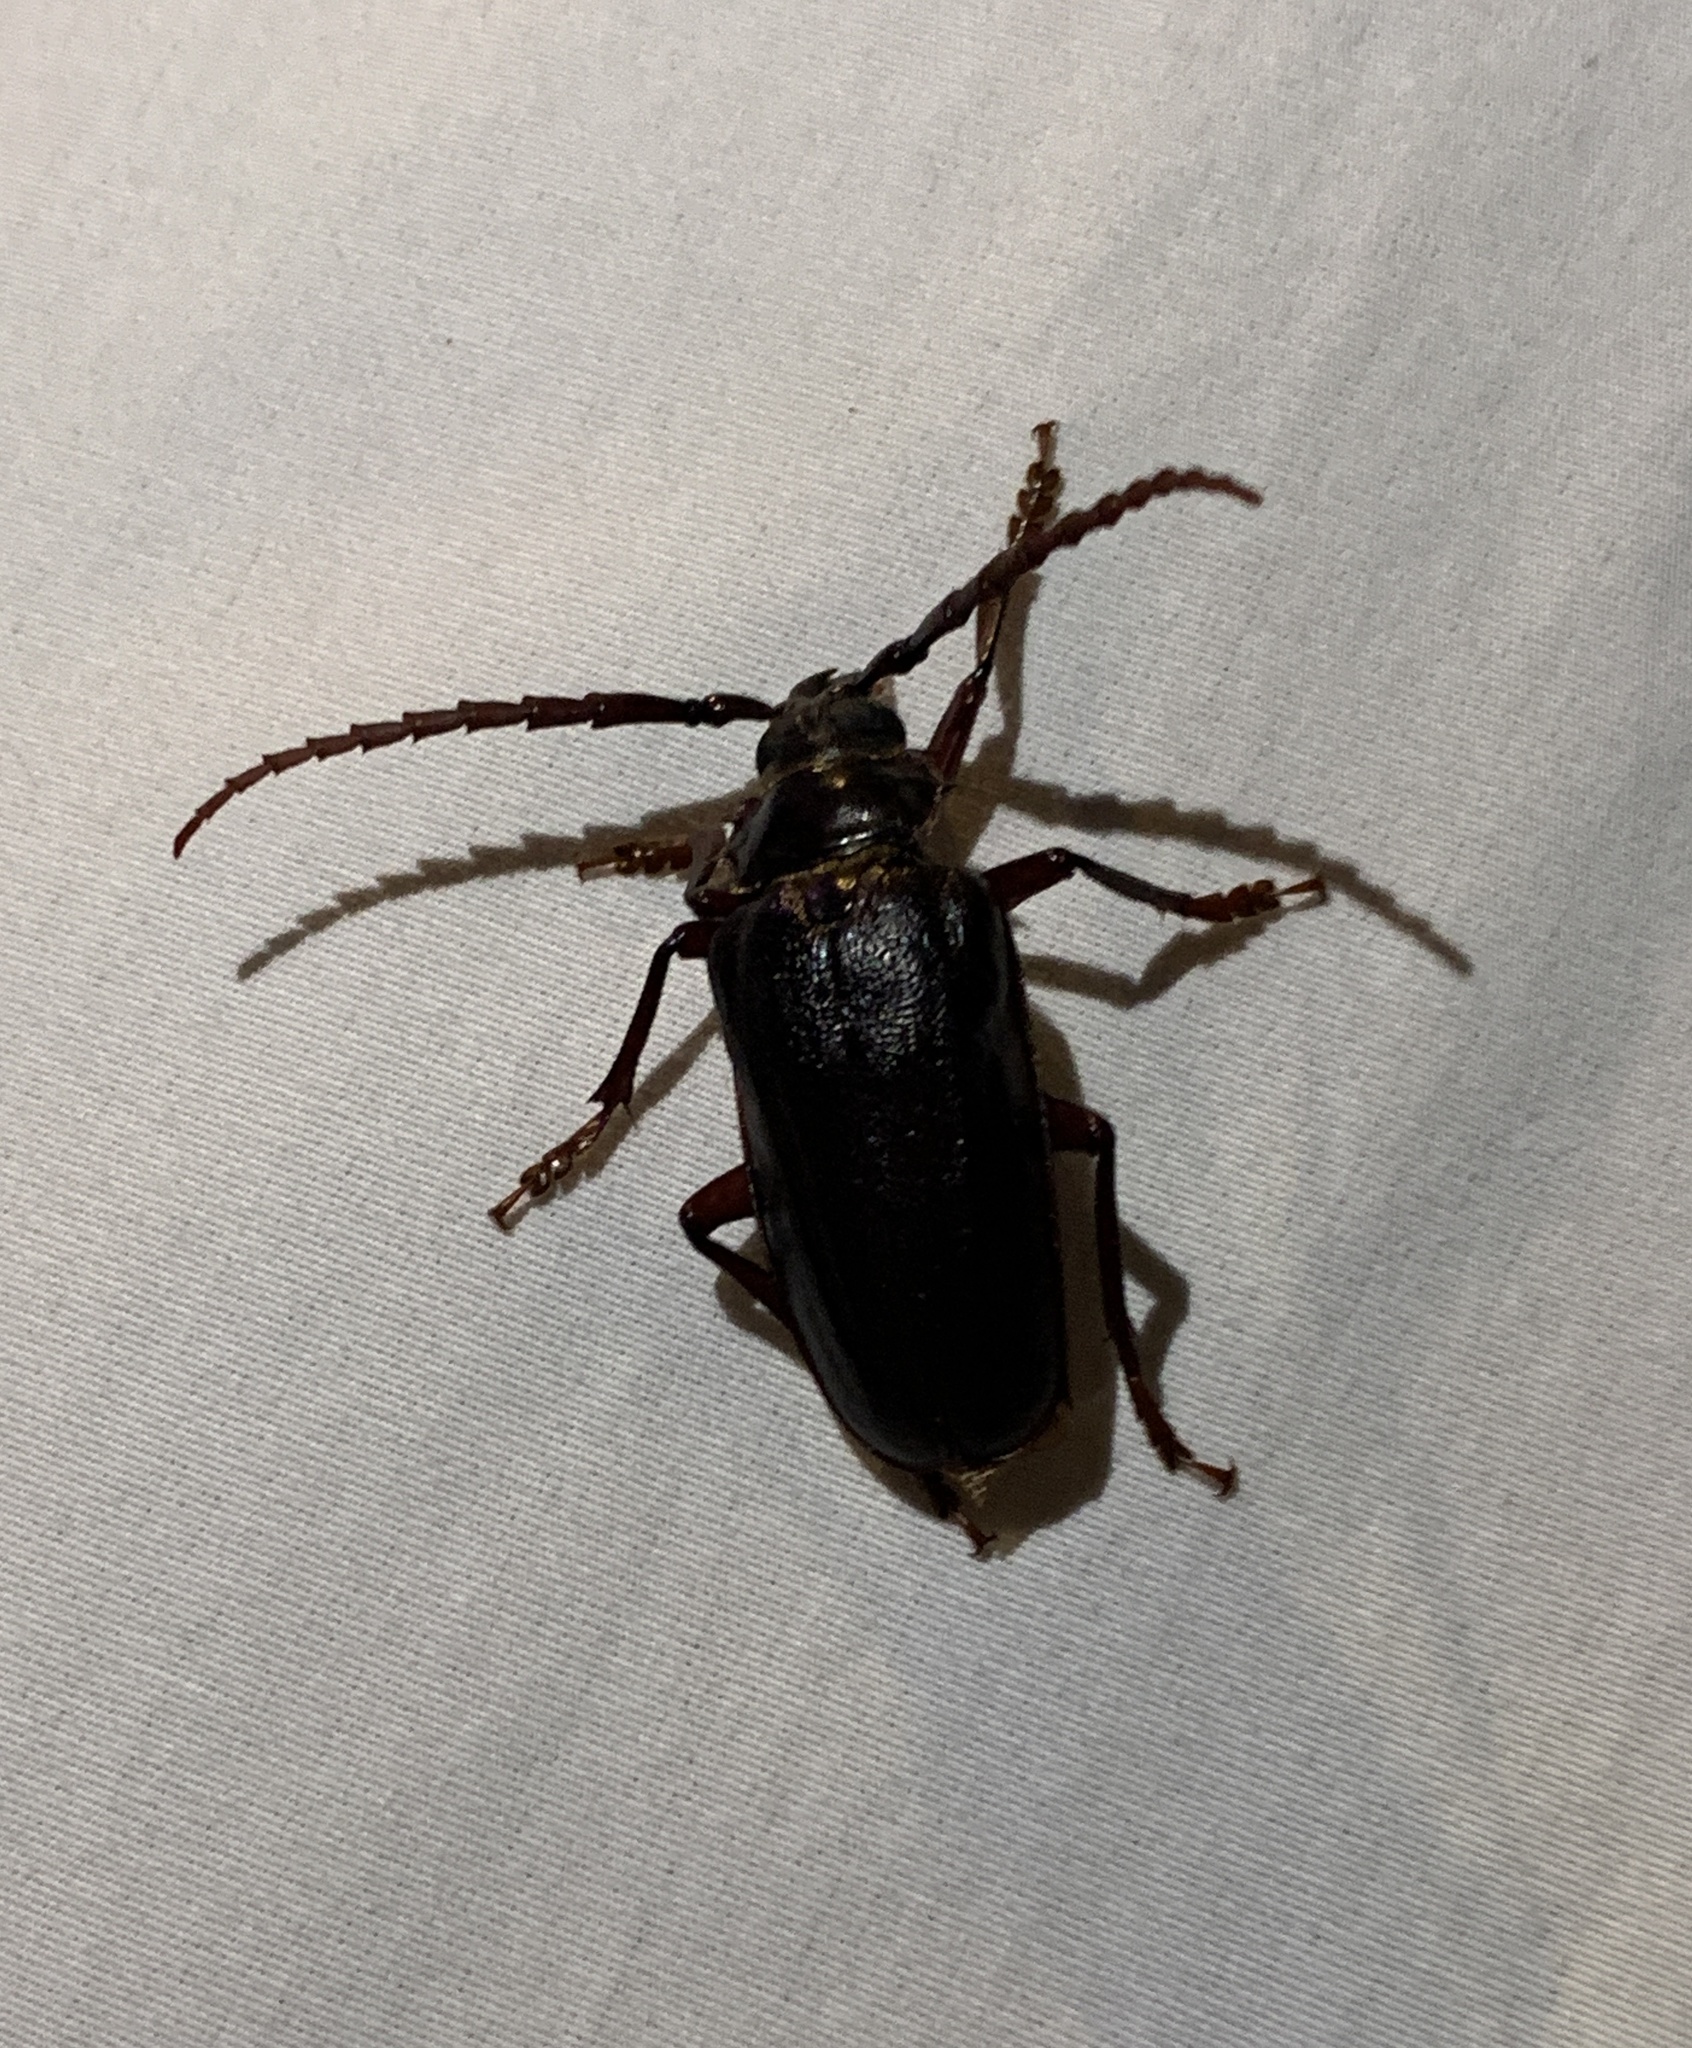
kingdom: Animalia
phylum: Arthropoda
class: Insecta
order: Coleoptera
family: Cerambycidae
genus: Prionus
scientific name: Prionus pocularis
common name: Tooth-necked longhorn beetle
